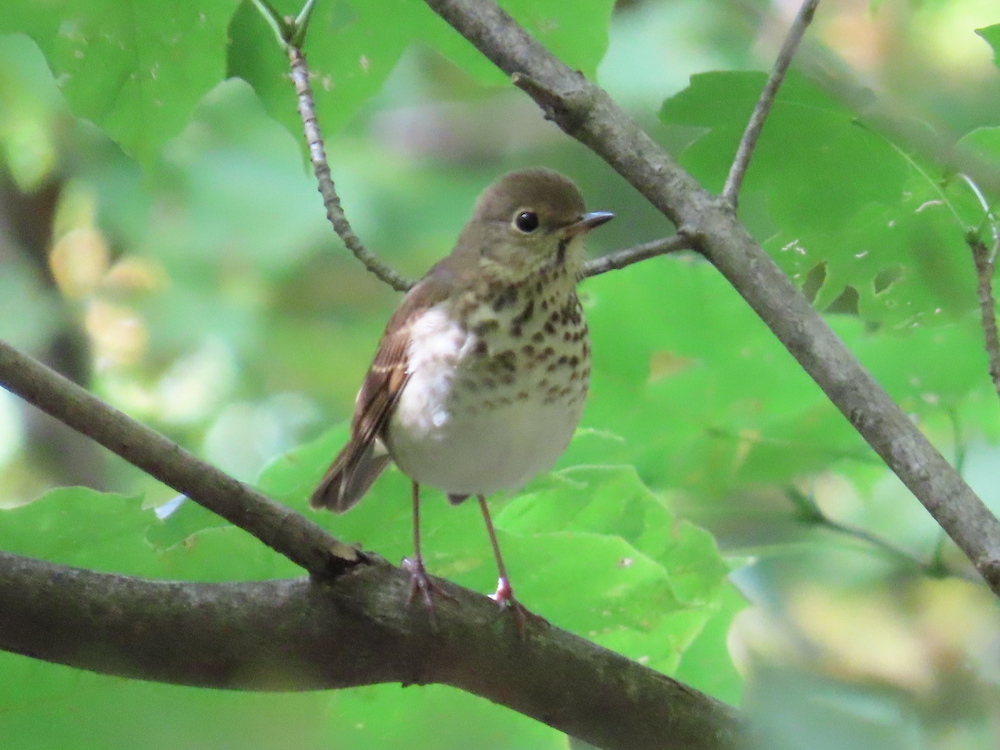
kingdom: Animalia
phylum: Chordata
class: Aves
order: Passeriformes
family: Turdidae
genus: Catharus
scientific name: Catharus ustulatus
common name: Swainson's thrush
